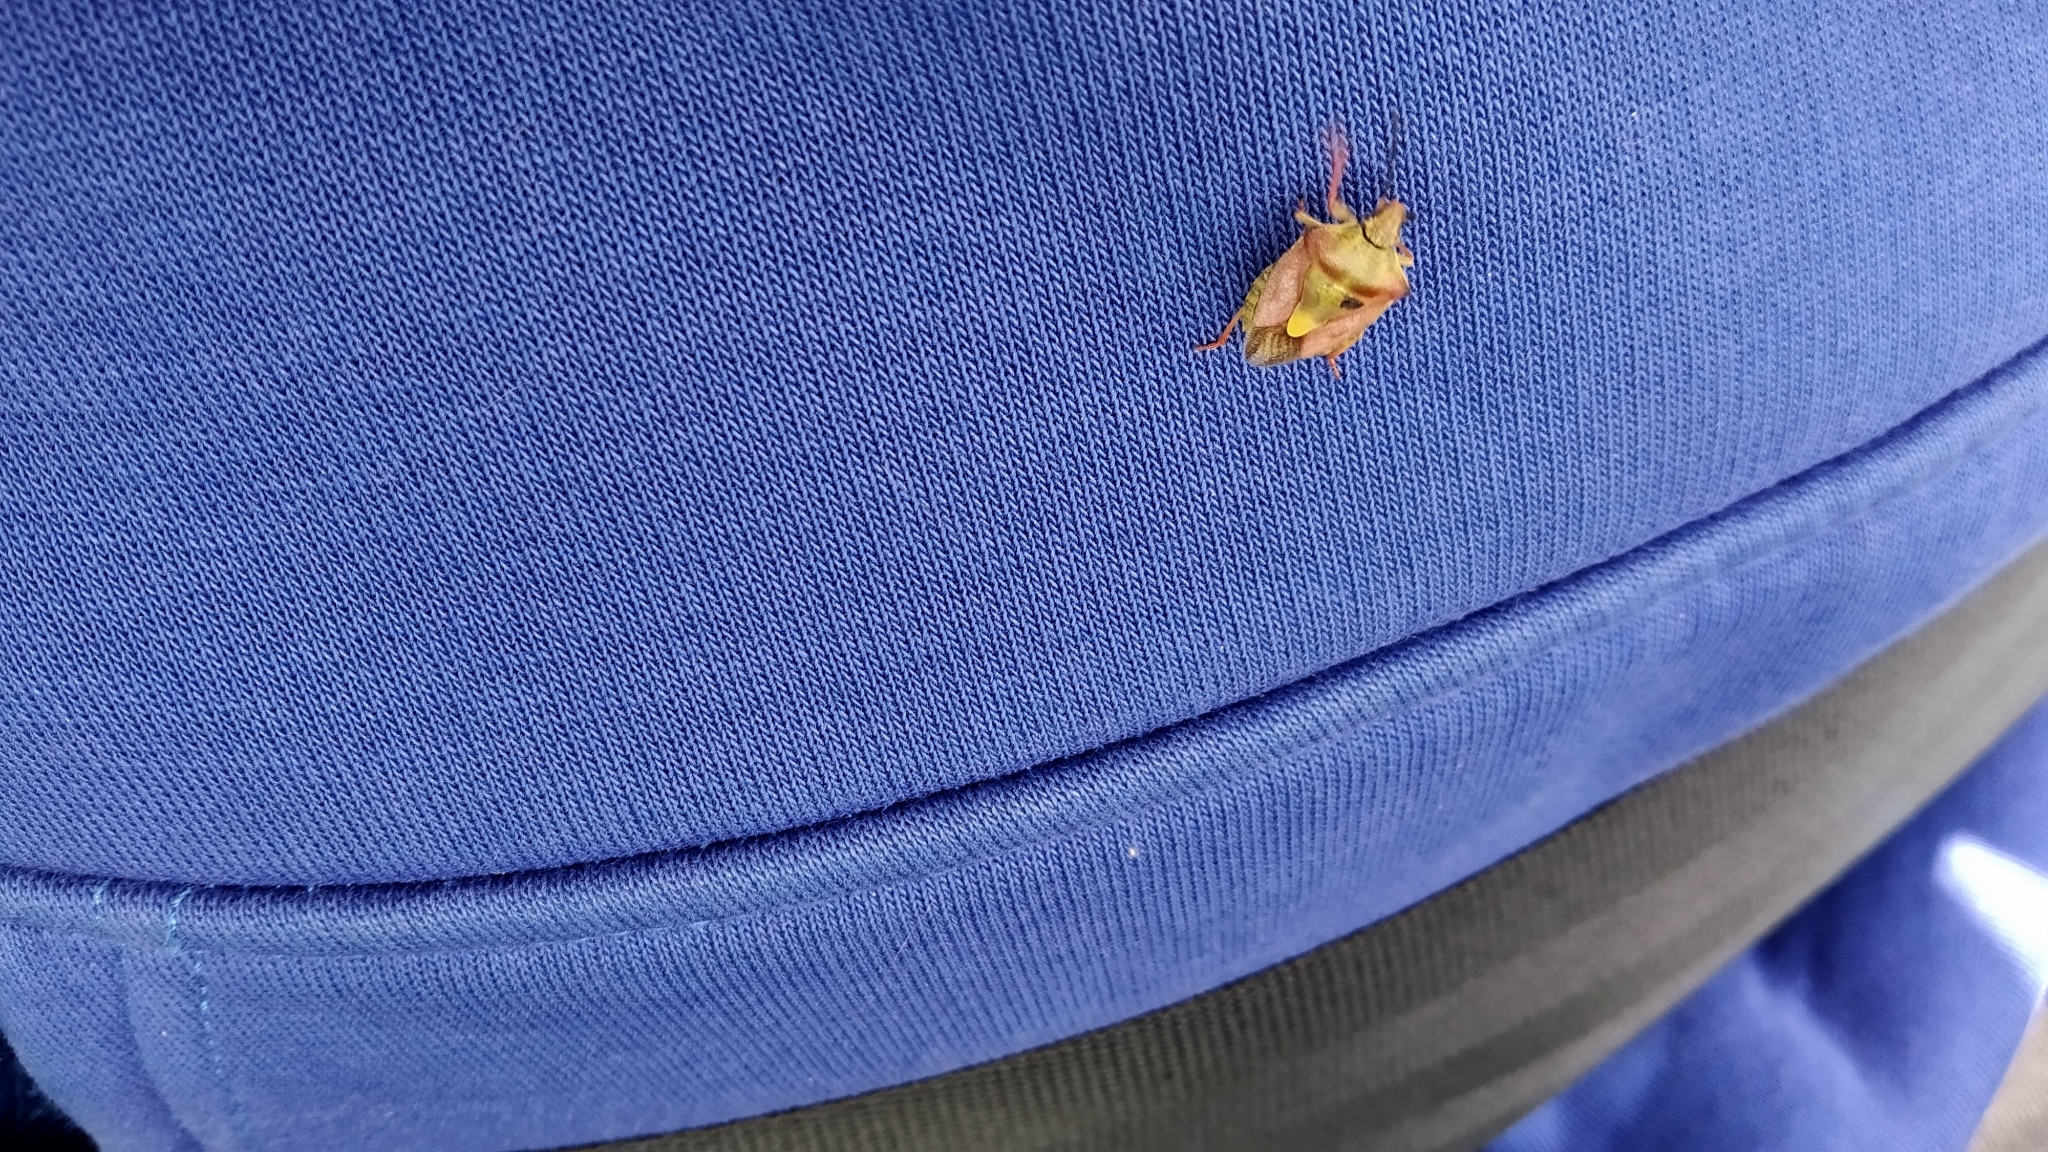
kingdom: Animalia
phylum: Arthropoda
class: Insecta
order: Hemiptera
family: Pentatomidae
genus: Carpocoris
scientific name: Carpocoris purpureipennis
